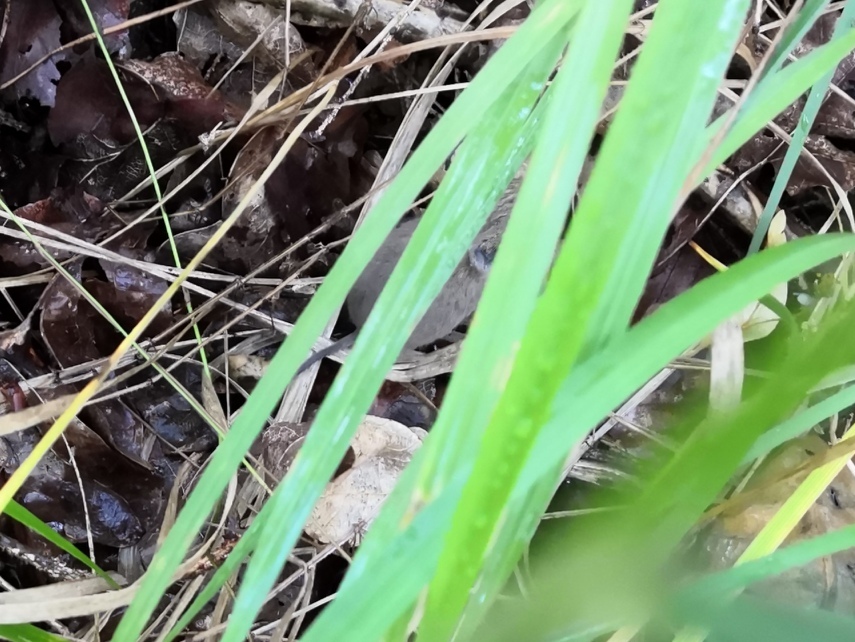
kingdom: Animalia
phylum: Chordata
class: Mammalia
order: Rodentia
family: Cricetidae
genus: Microtus
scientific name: Microtus arvalis
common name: Common vole
